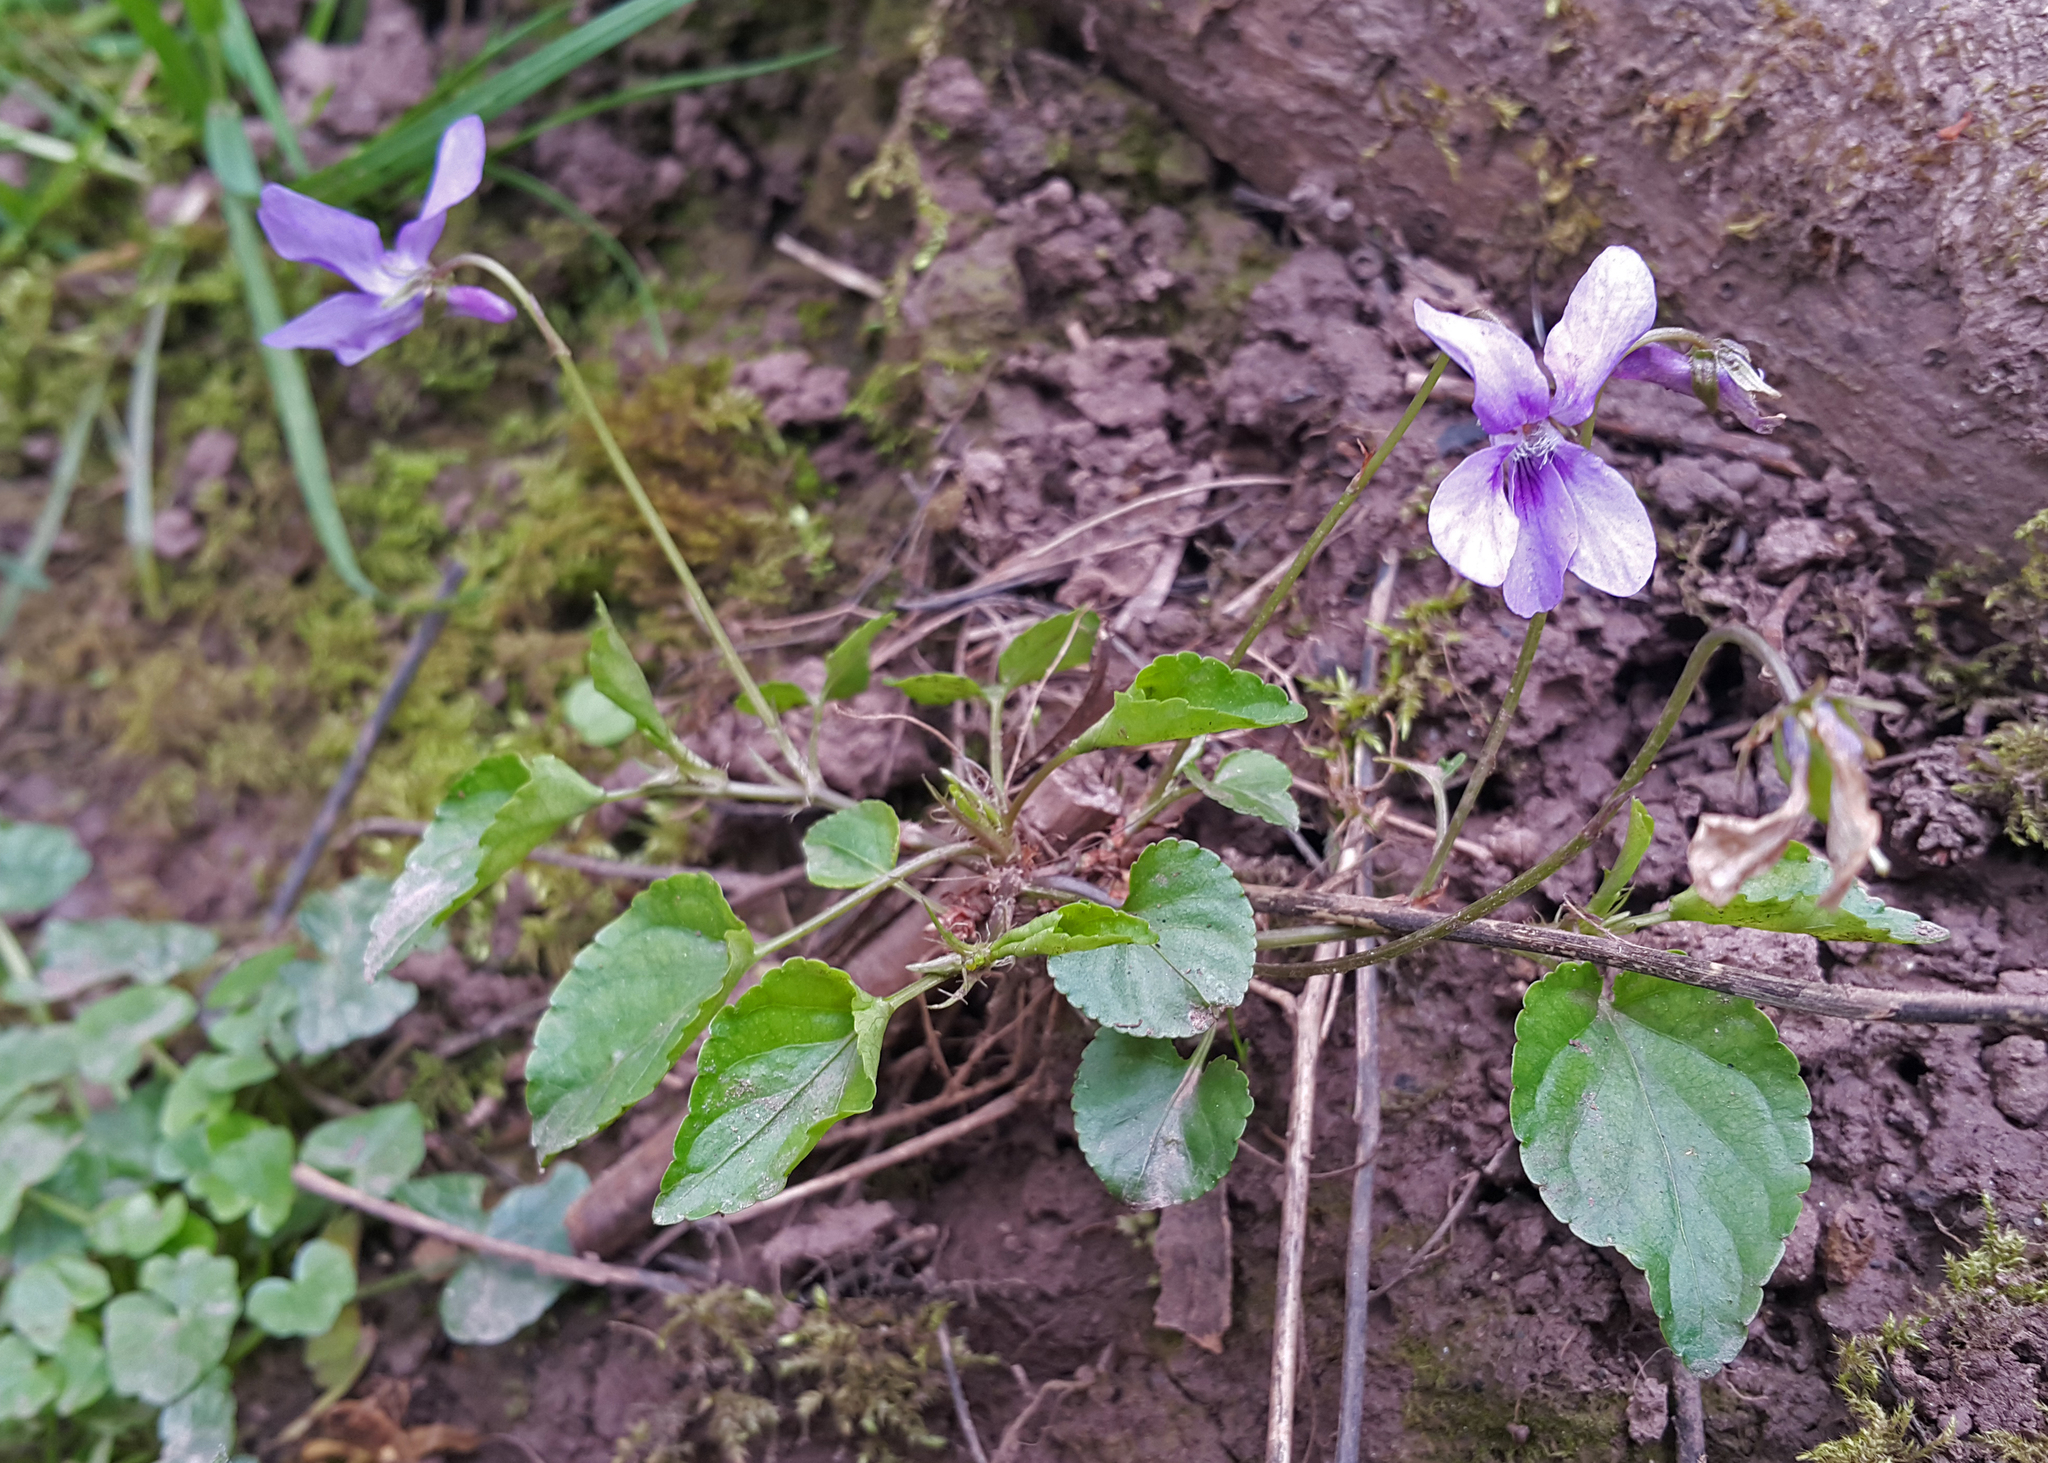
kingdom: Plantae
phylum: Tracheophyta
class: Magnoliopsida
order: Malpighiales
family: Violaceae
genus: Viola
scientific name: Viola riviniana
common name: Common dog-violet
